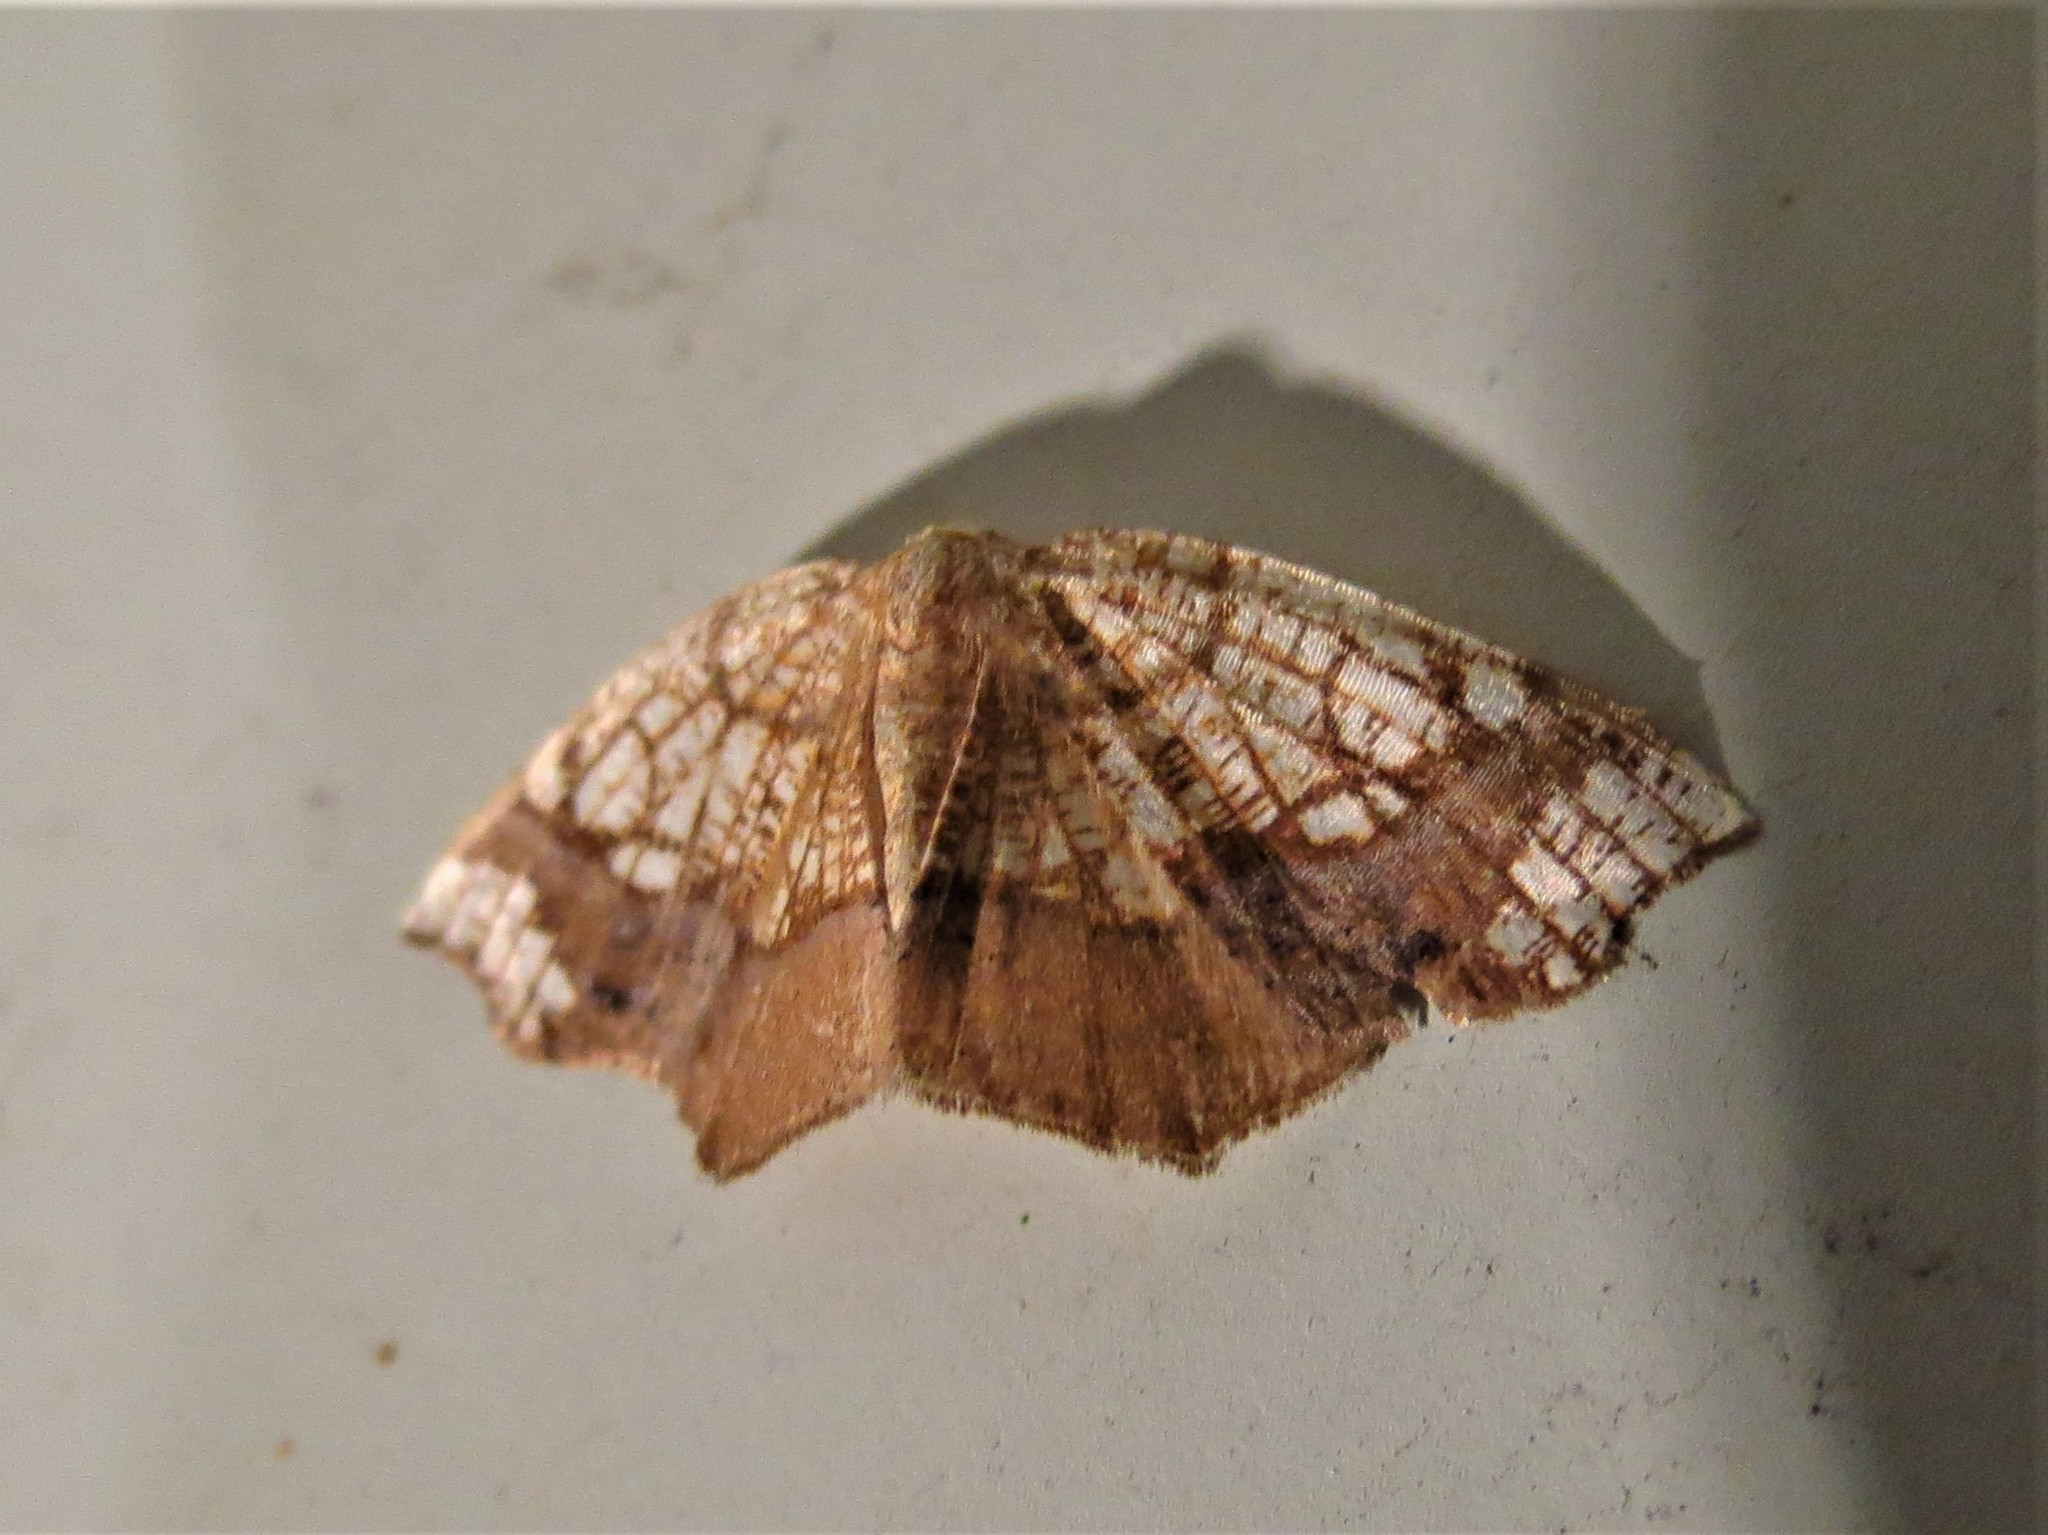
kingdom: Animalia
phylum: Arthropoda
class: Insecta
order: Lepidoptera
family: Geometridae
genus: Nematocampa
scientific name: Nematocampa resistaria
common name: Horned spanworm moth
